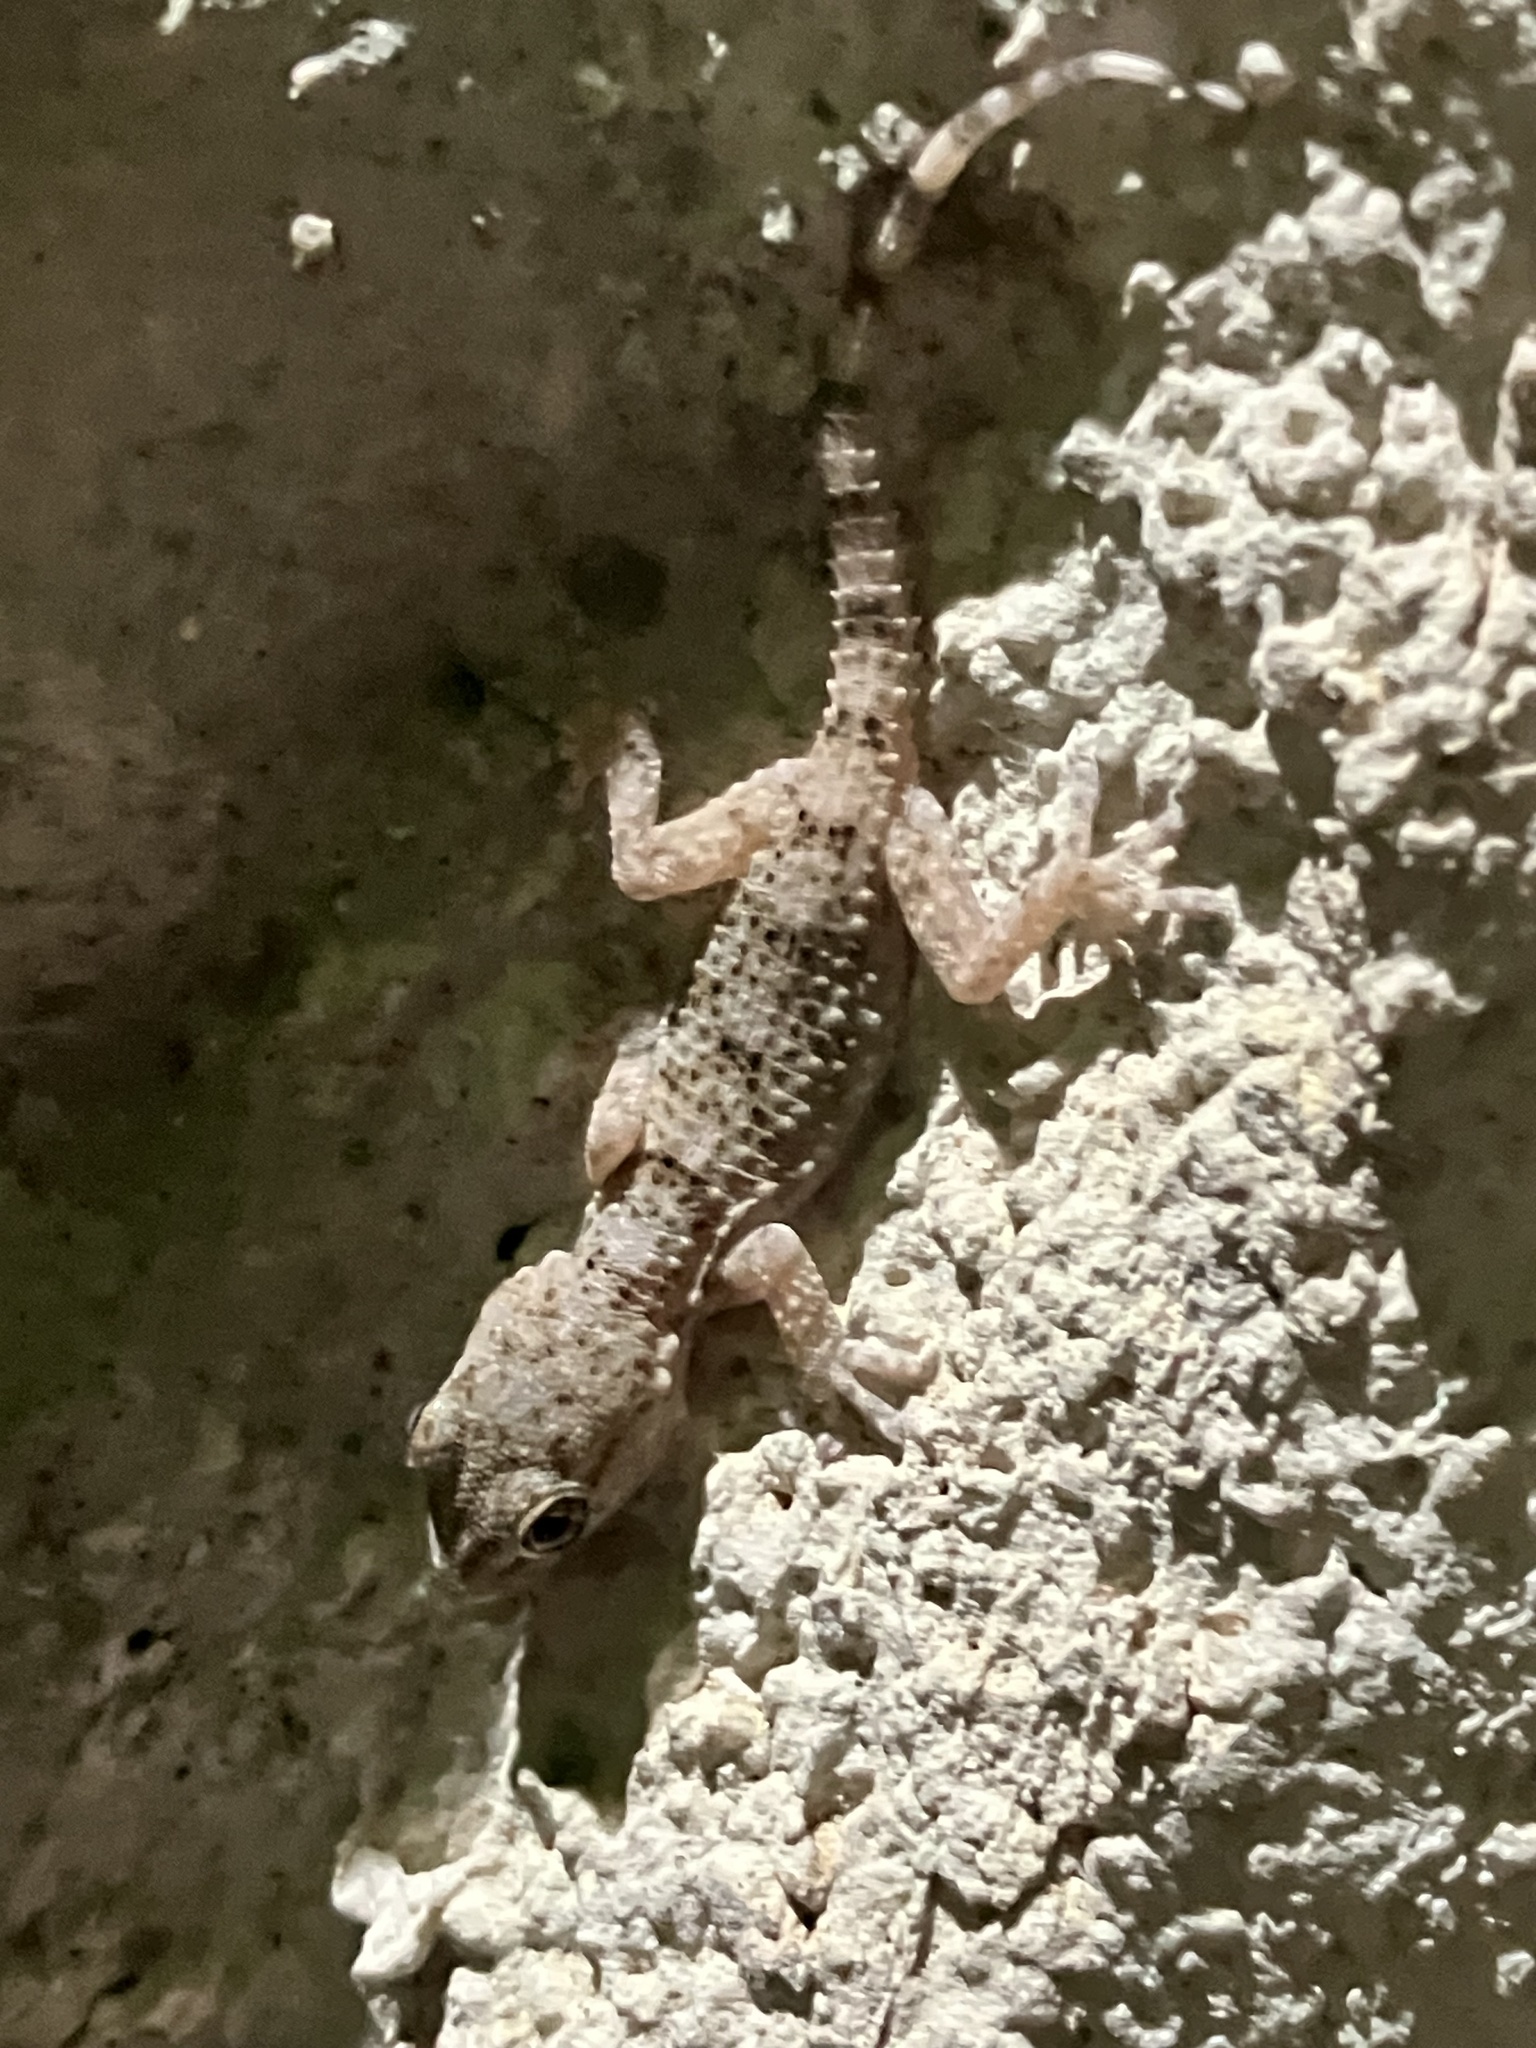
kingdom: Animalia
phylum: Chordata
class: Squamata
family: Phyllodactylidae
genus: Tarentola
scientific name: Tarentola mauritanica
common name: Moorish gecko
